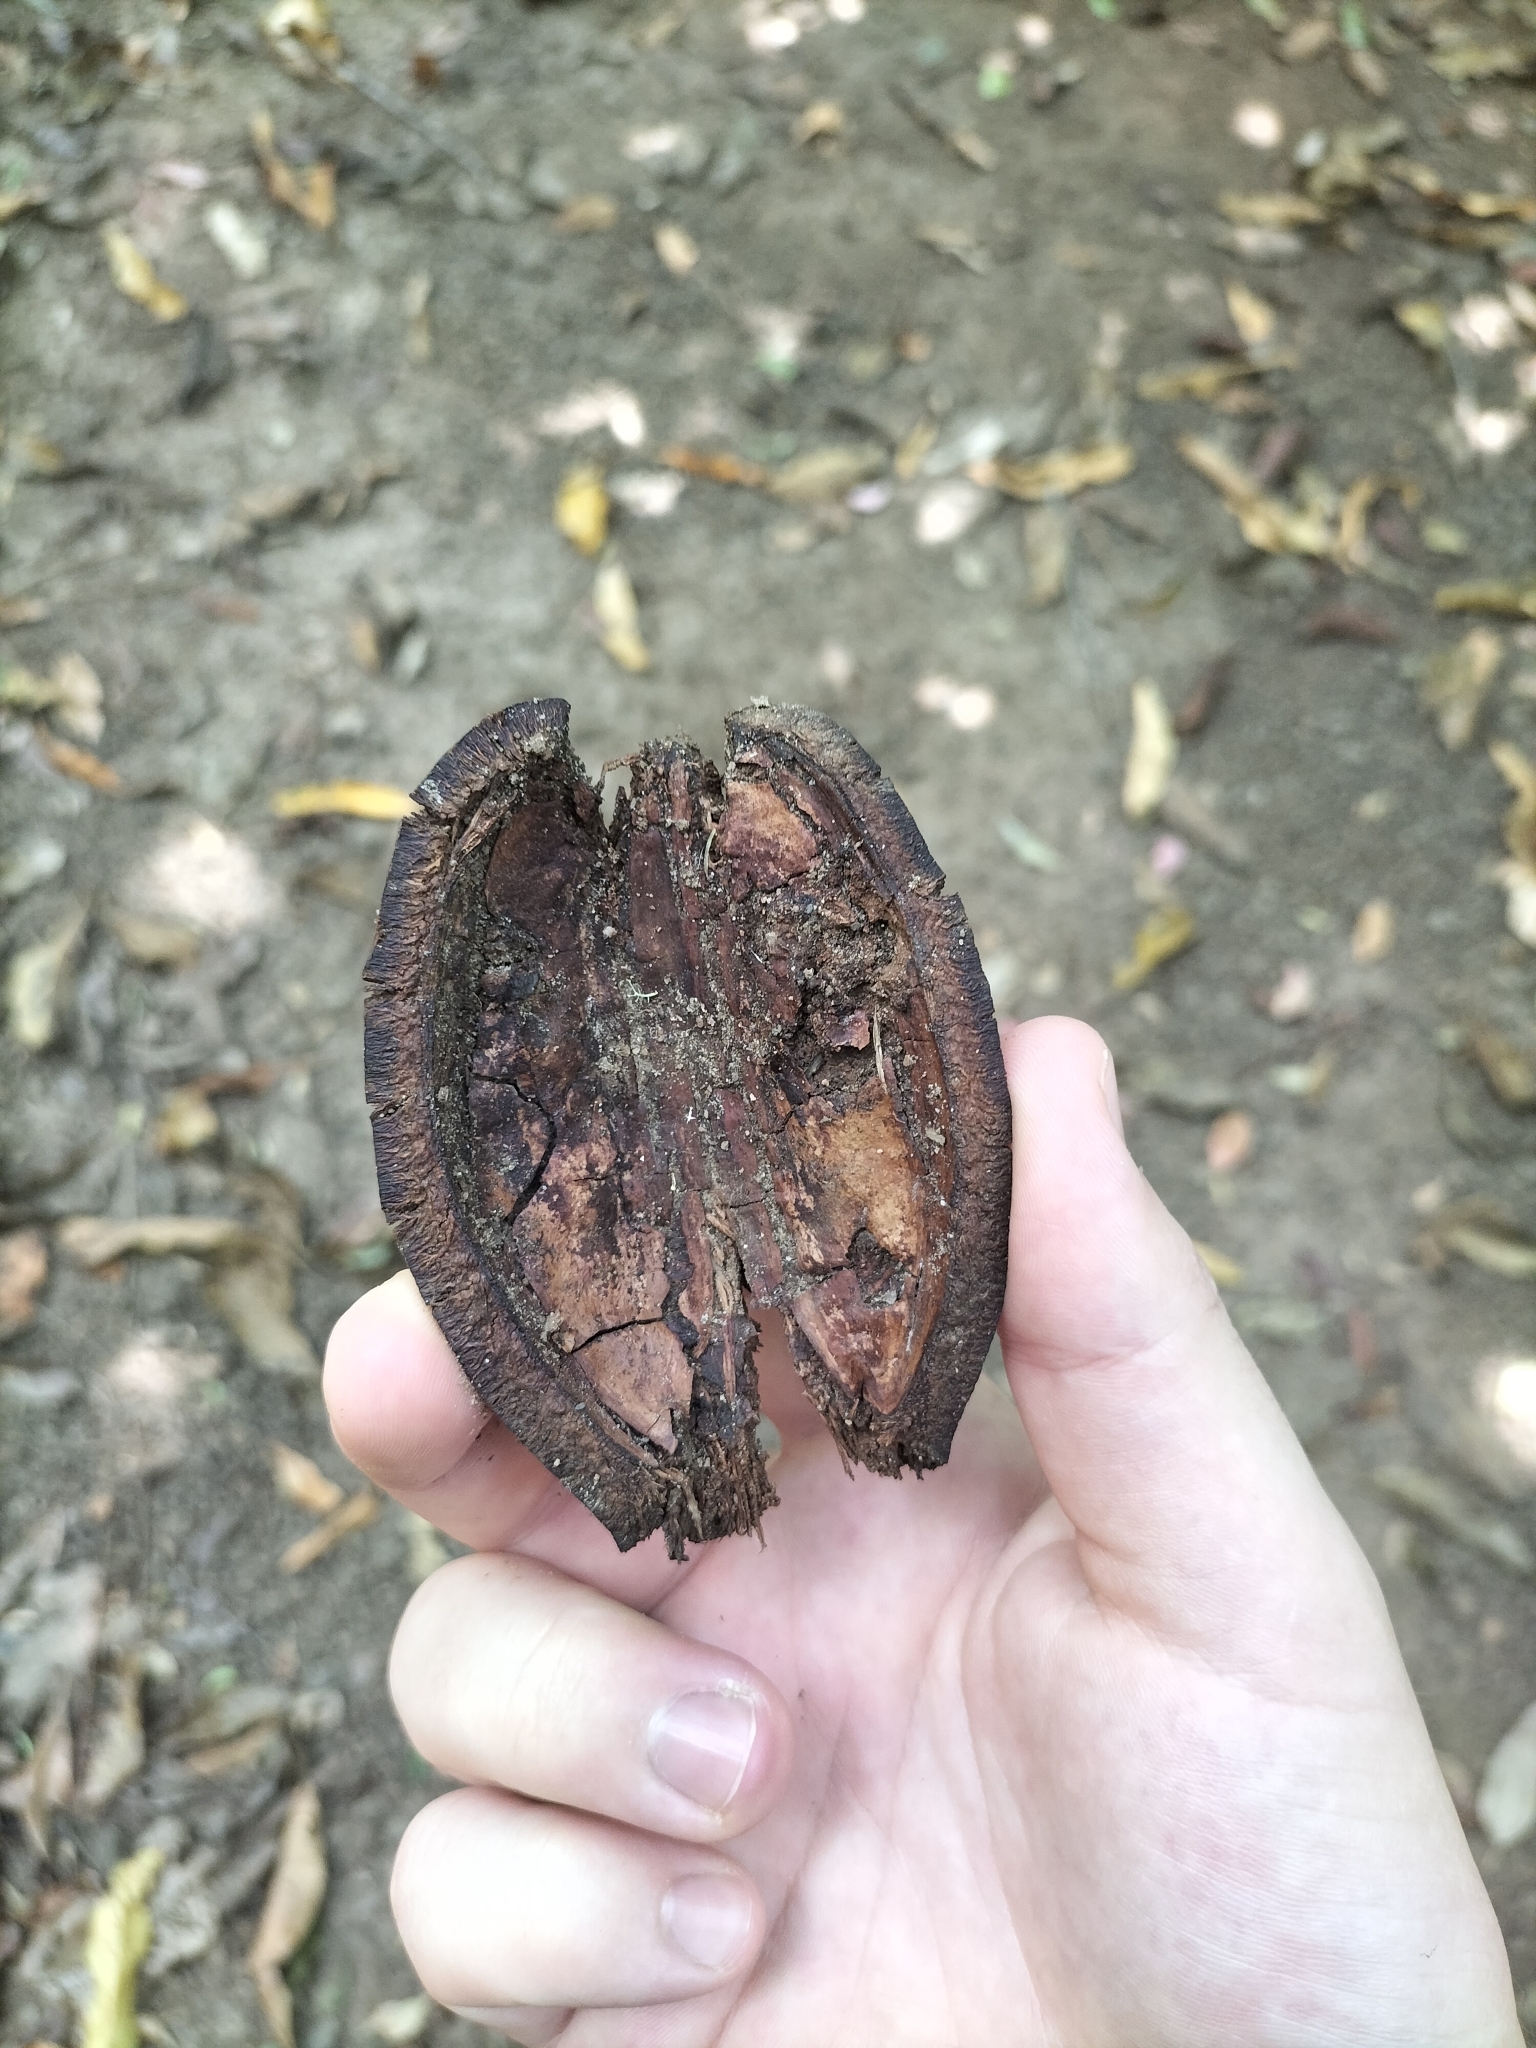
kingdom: Plantae
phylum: Tracheophyta
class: Magnoliopsida
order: Proteales
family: Proteaceae
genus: Cardwellia
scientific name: Cardwellia sublimis
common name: Bull oak
